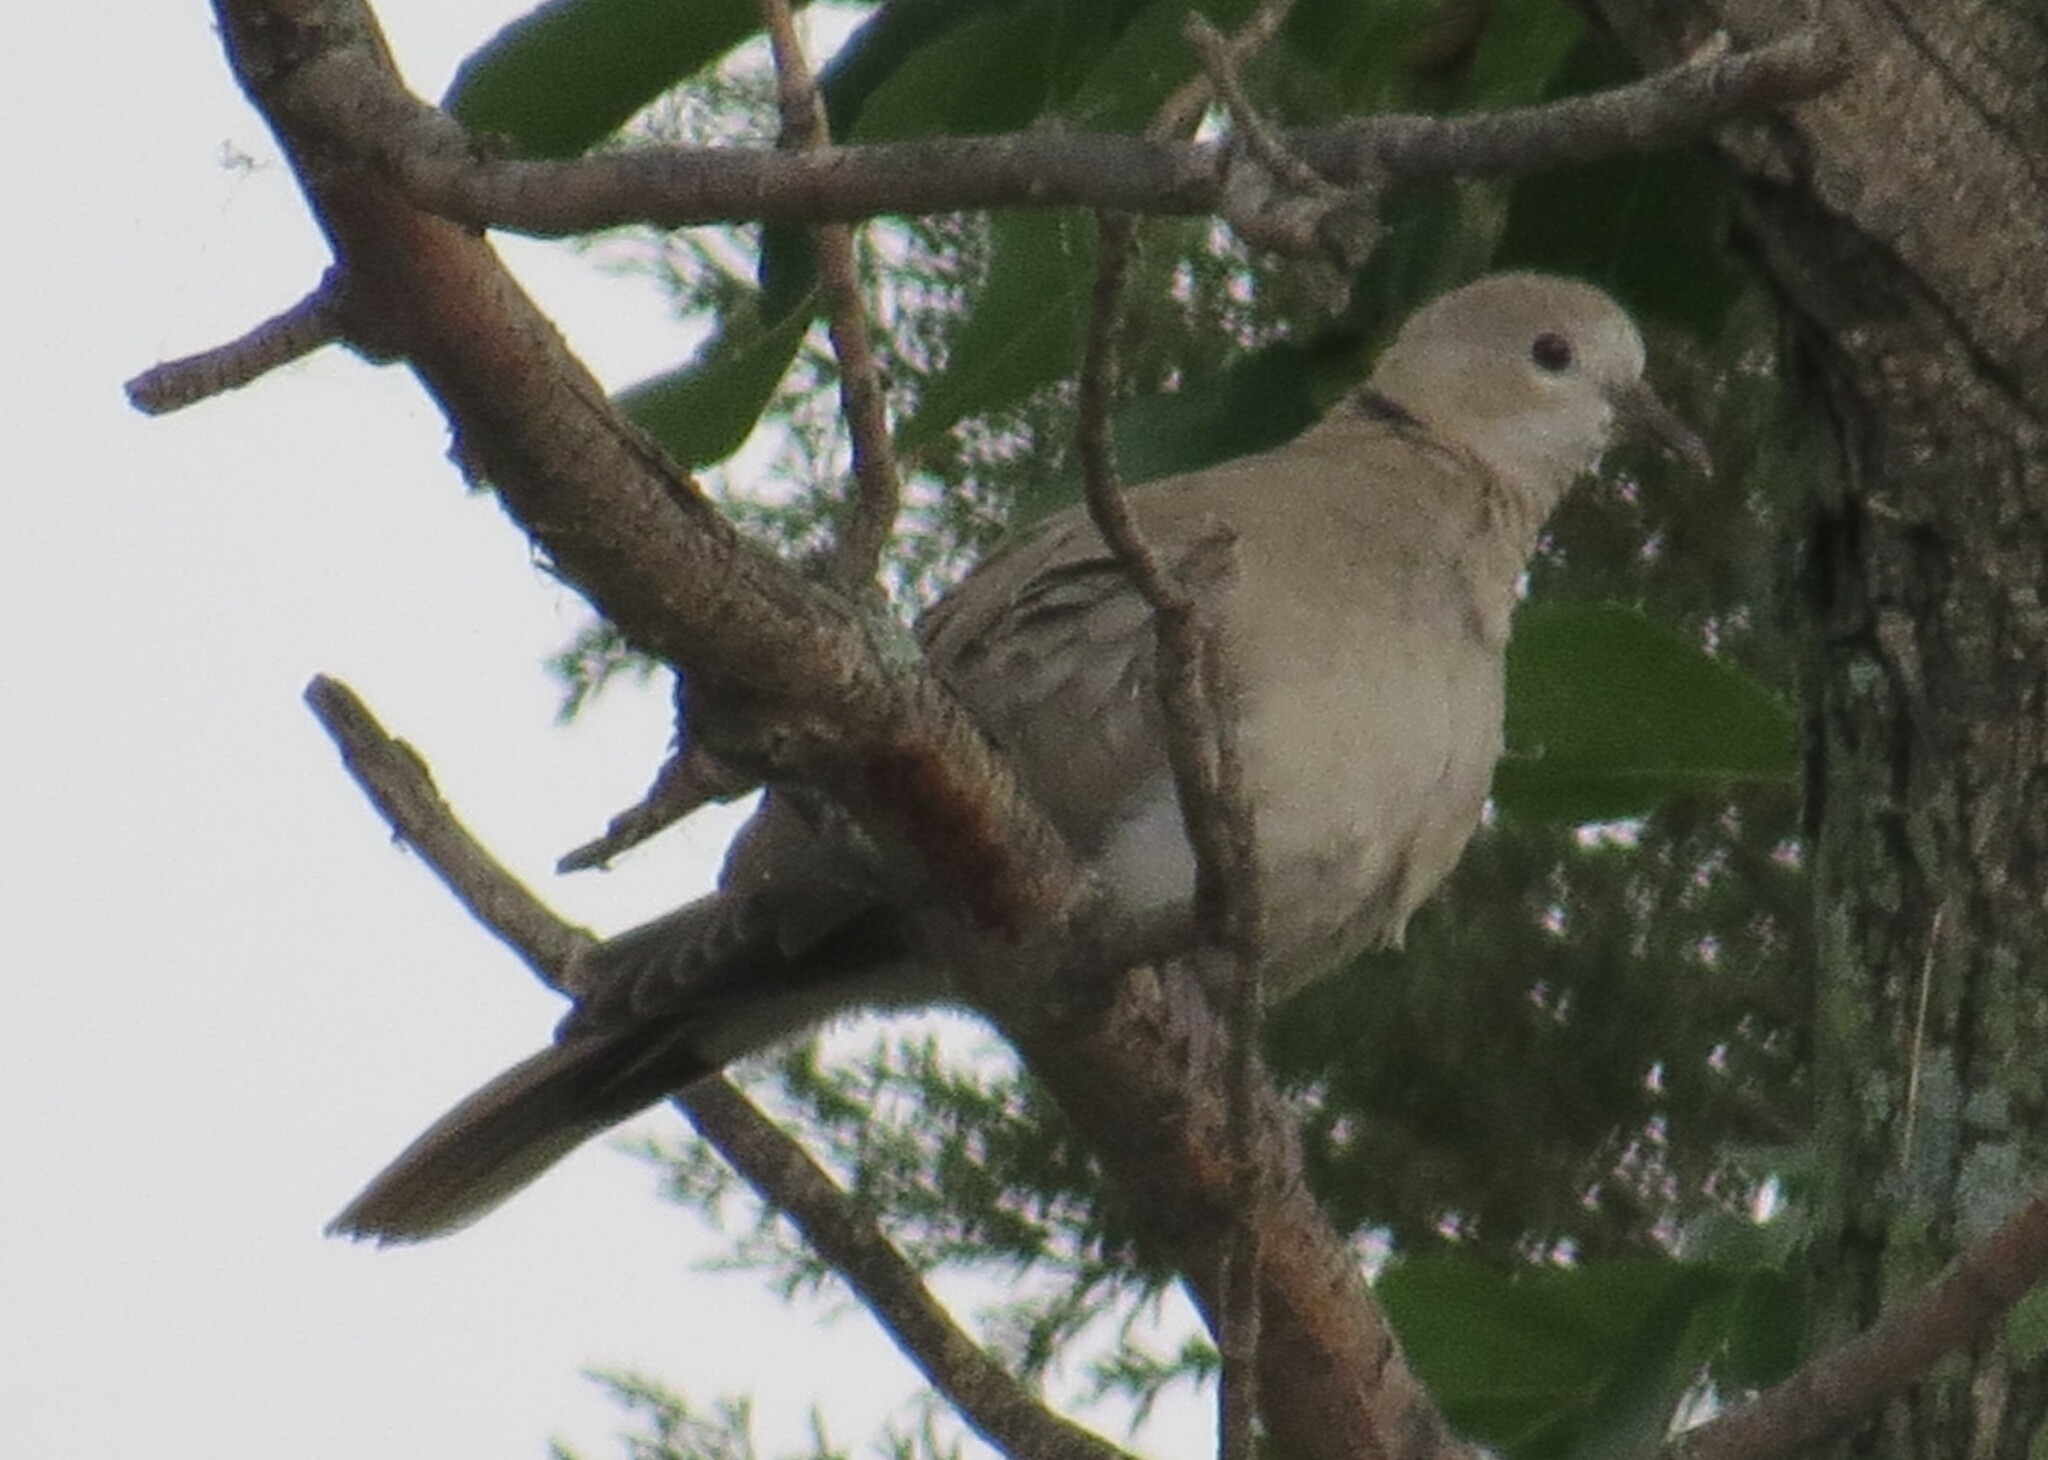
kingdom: Animalia
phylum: Chordata
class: Aves
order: Columbiformes
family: Columbidae
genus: Streptopelia
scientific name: Streptopelia decaocto
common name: Eurasian collared dove
